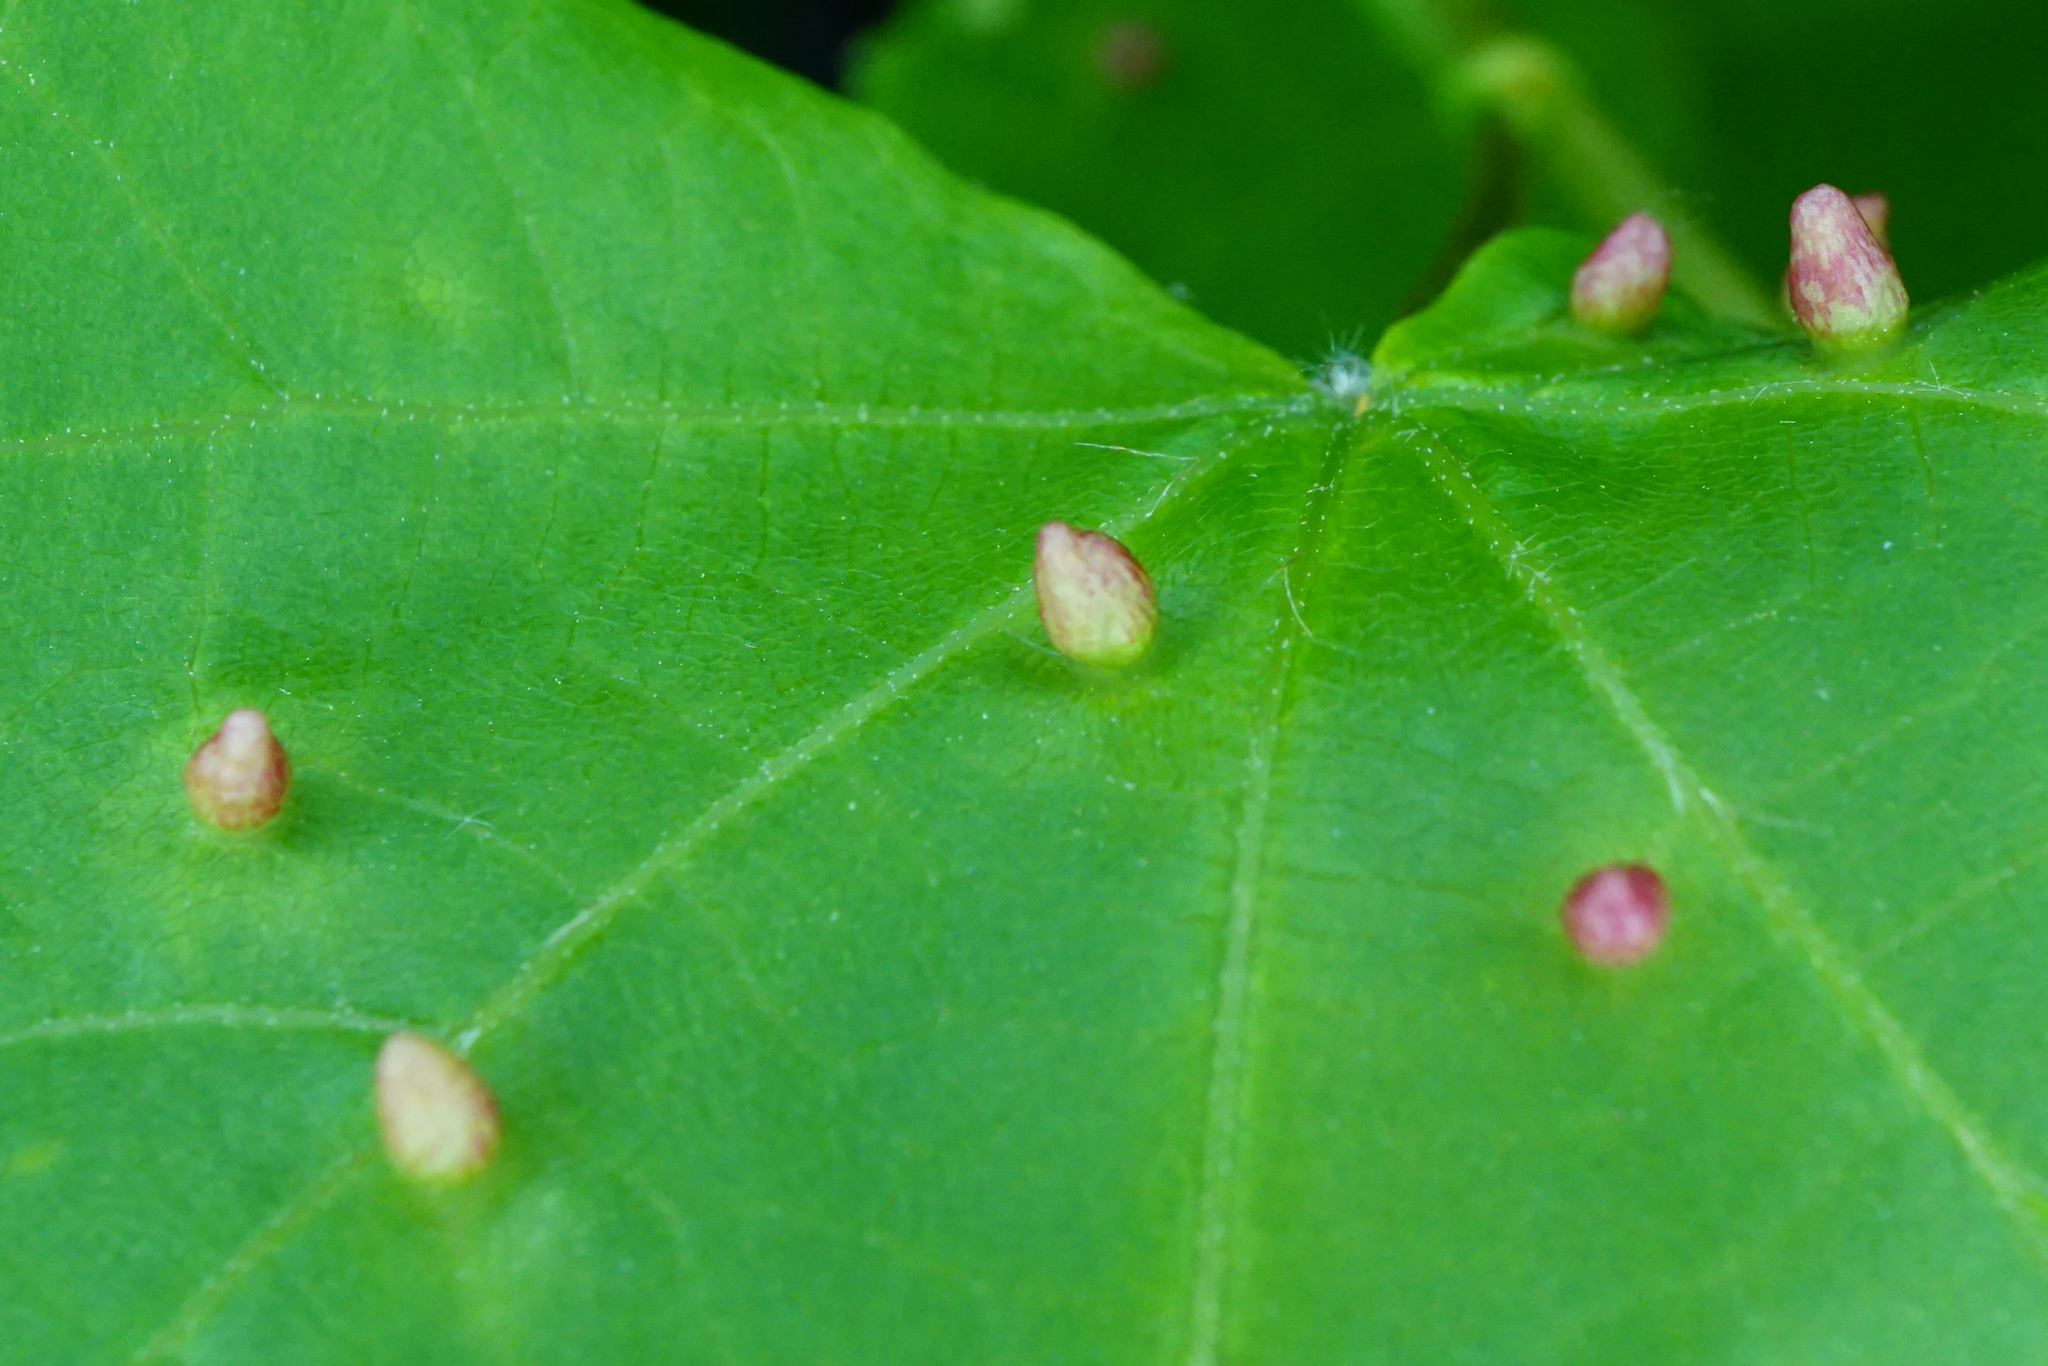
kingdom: Animalia
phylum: Arthropoda
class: Arachnida
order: Trombidiformes
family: Eriophyidae
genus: Eriophyes
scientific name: Eriophyes tiliae
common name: Red nail gall mite
